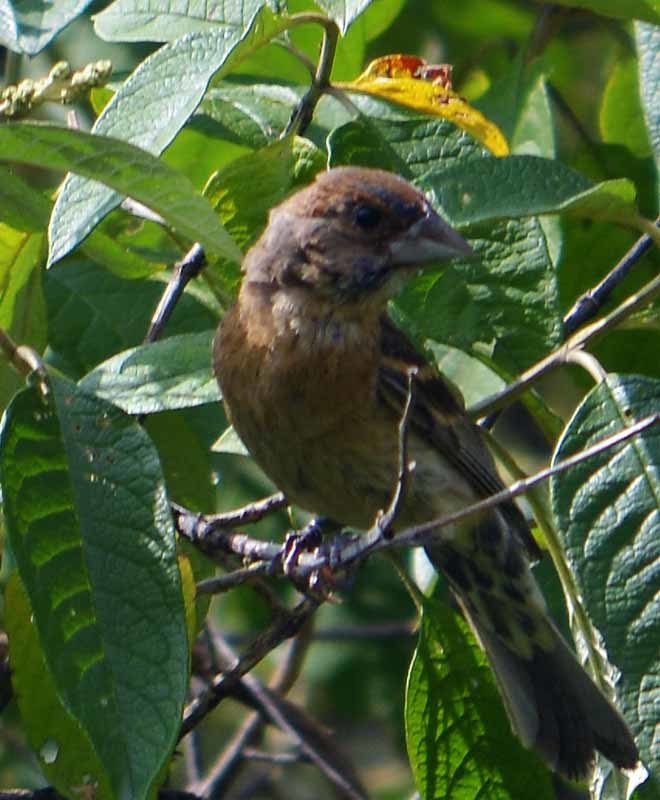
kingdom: Animalia
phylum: Chordata
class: Aves
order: Passeriformes
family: Cardinalidae
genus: Passerina
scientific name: Passerina caerulea
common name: Blue grosbeak
